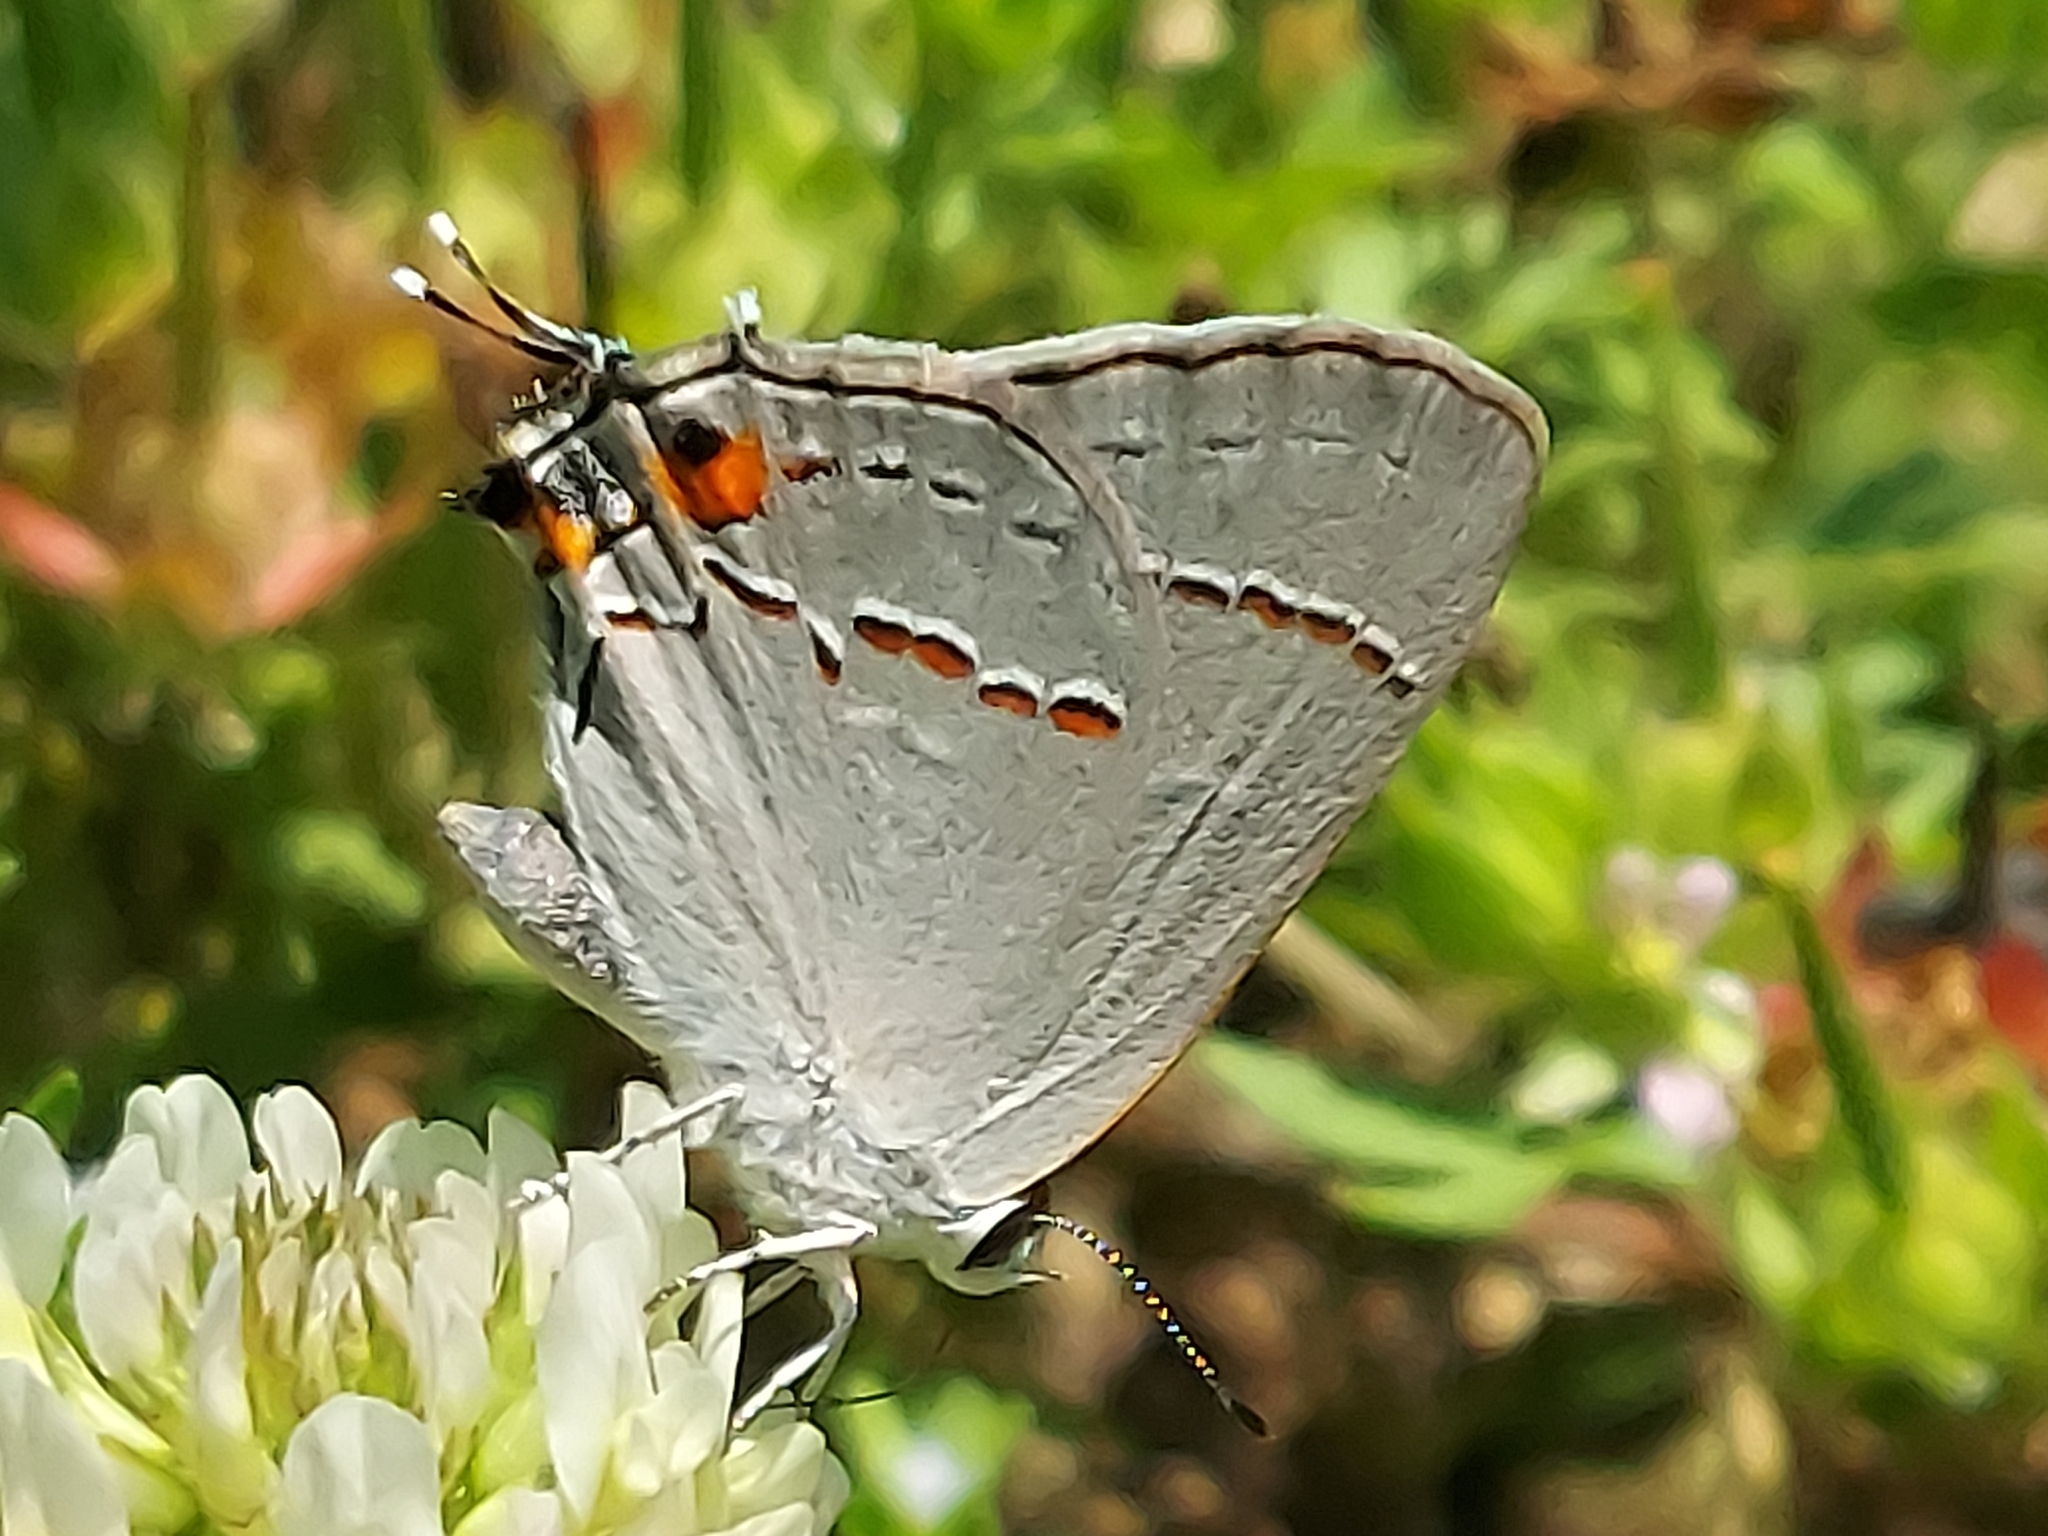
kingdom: Animalia
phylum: Arthropoda
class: Insecta
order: Lepidoptera
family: Lycaenidae
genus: Strymon
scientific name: Strymon melinus
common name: Gray hairstreak
